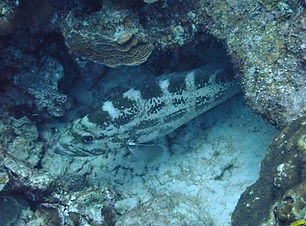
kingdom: Animalia
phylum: Chordata
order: Perciformes
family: Serranidae
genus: Mycteroperca
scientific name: Mycteroperca interstitialis
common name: Yellowmouth grouper
